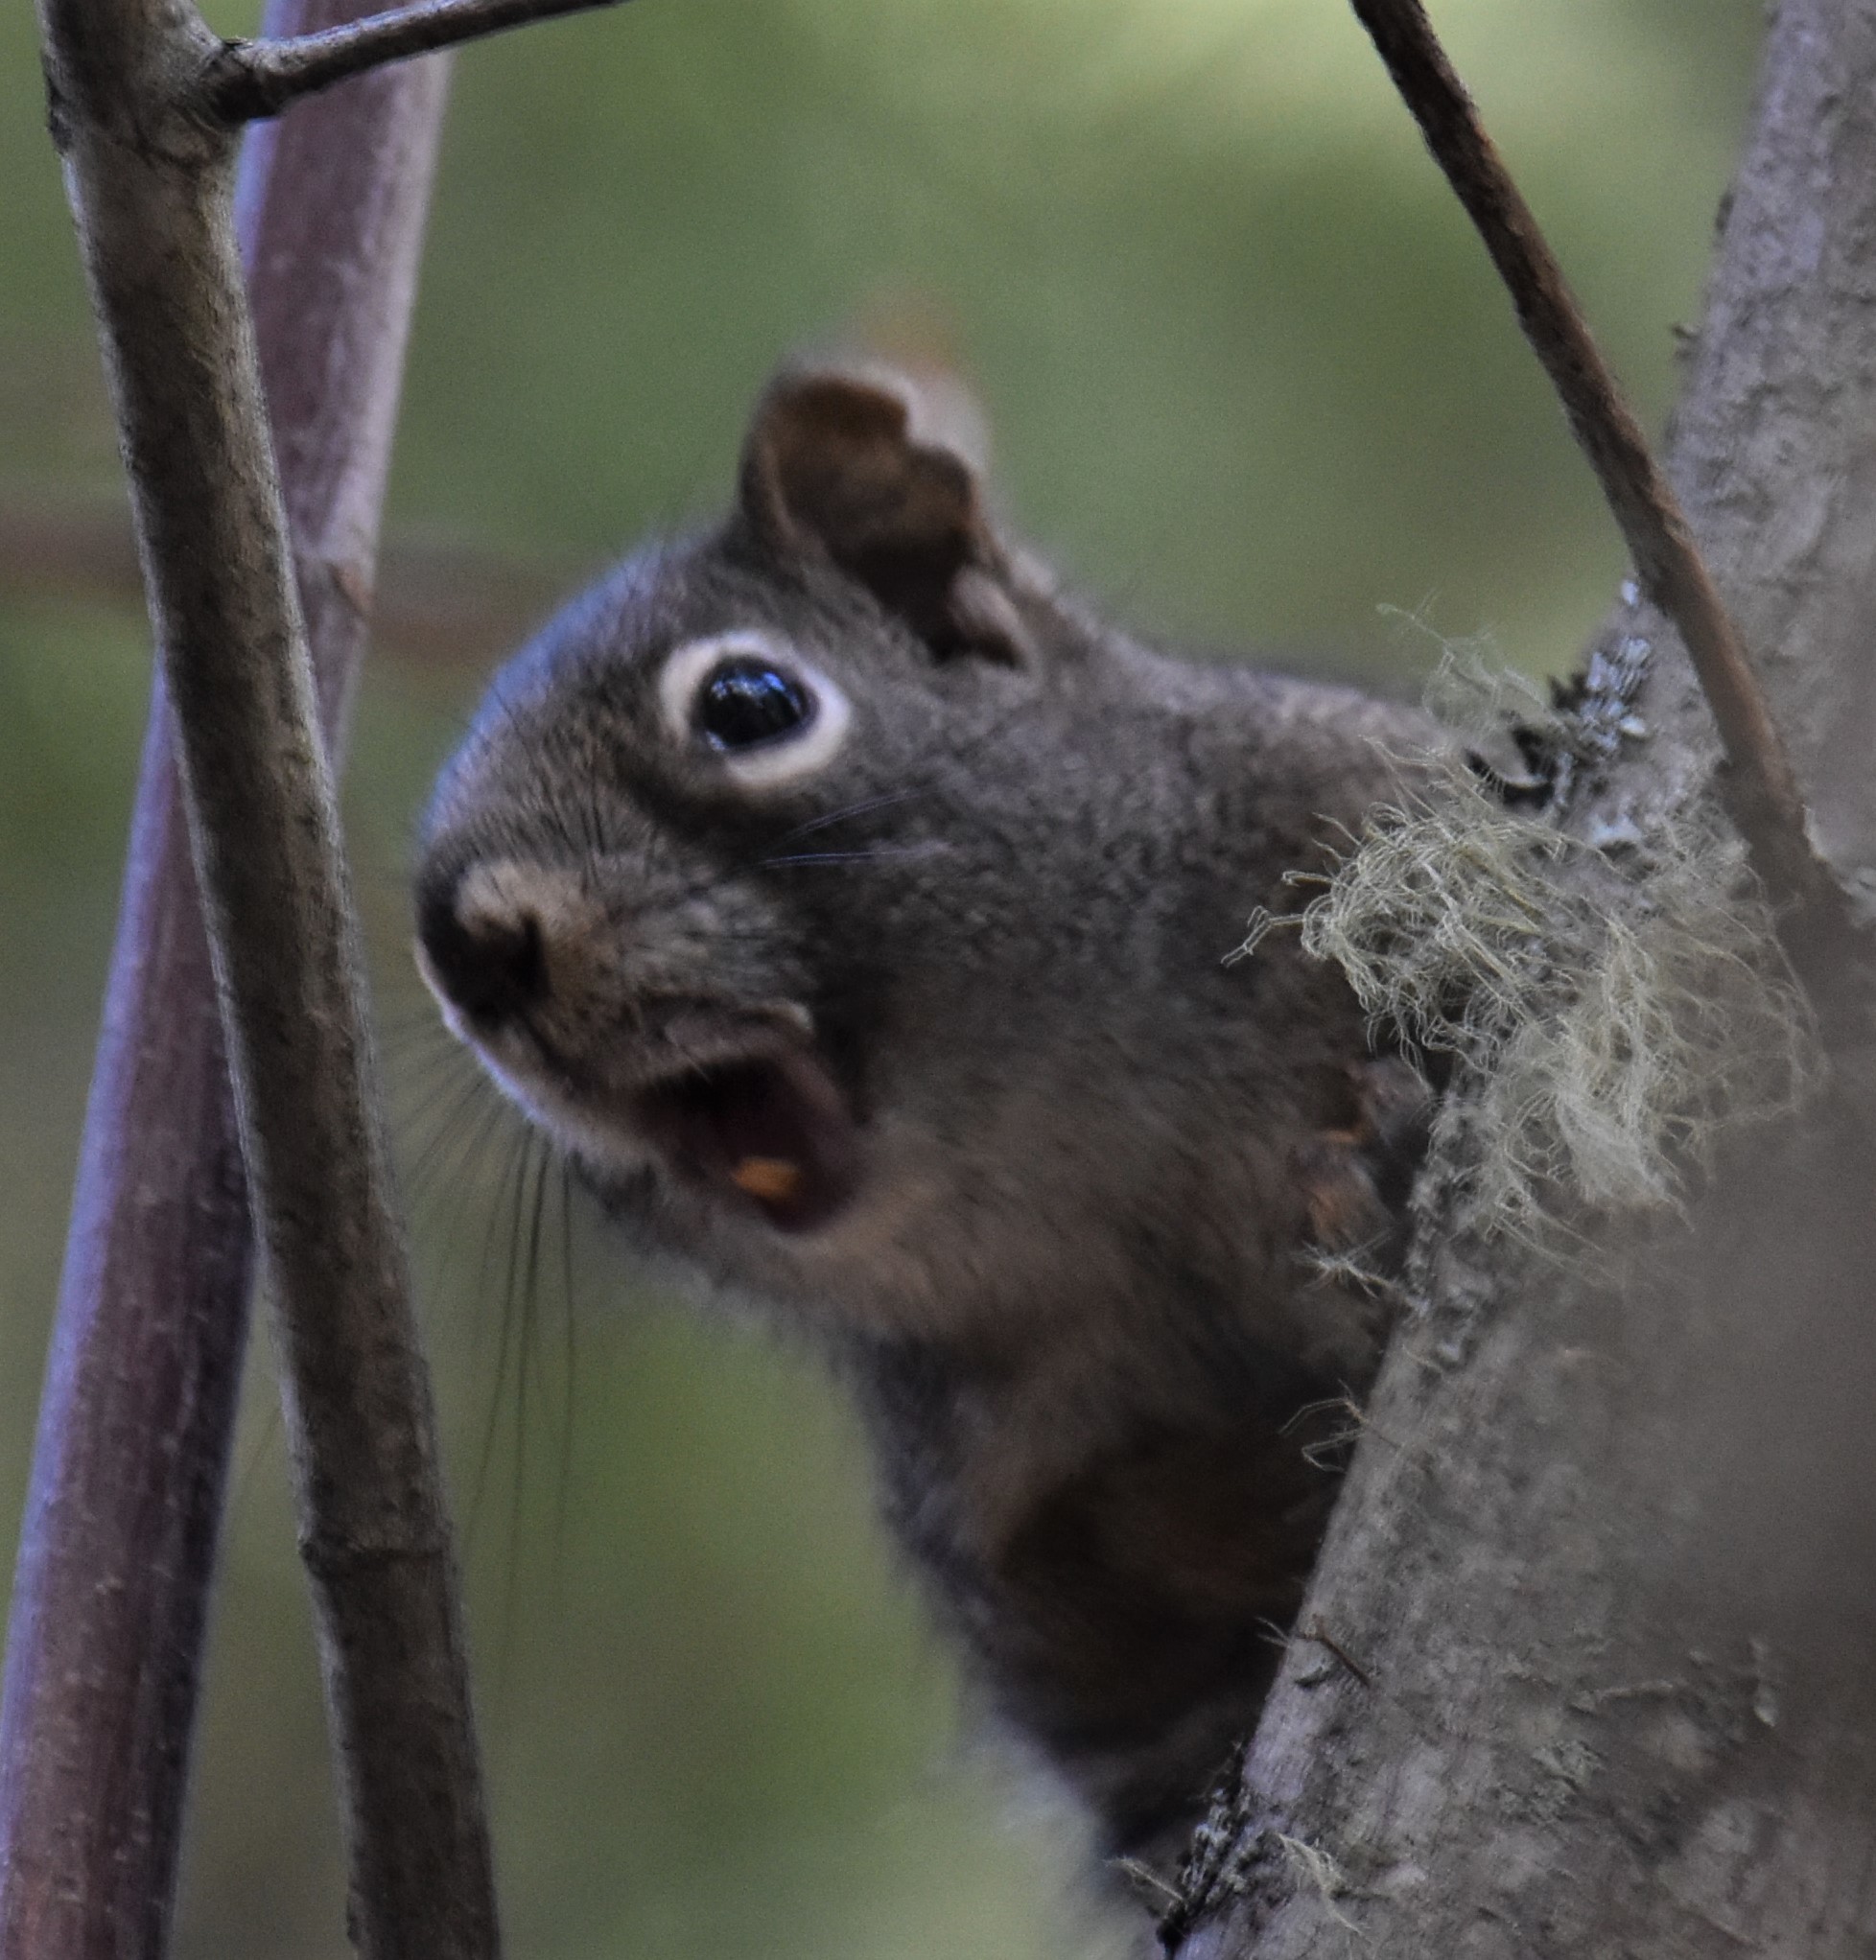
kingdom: Animalia
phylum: Chordata
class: Mammalia
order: Rodentia
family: Sciuridae
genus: Tamiasciurus
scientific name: Tamiasciurus hudsonicus
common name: Red squirrel
